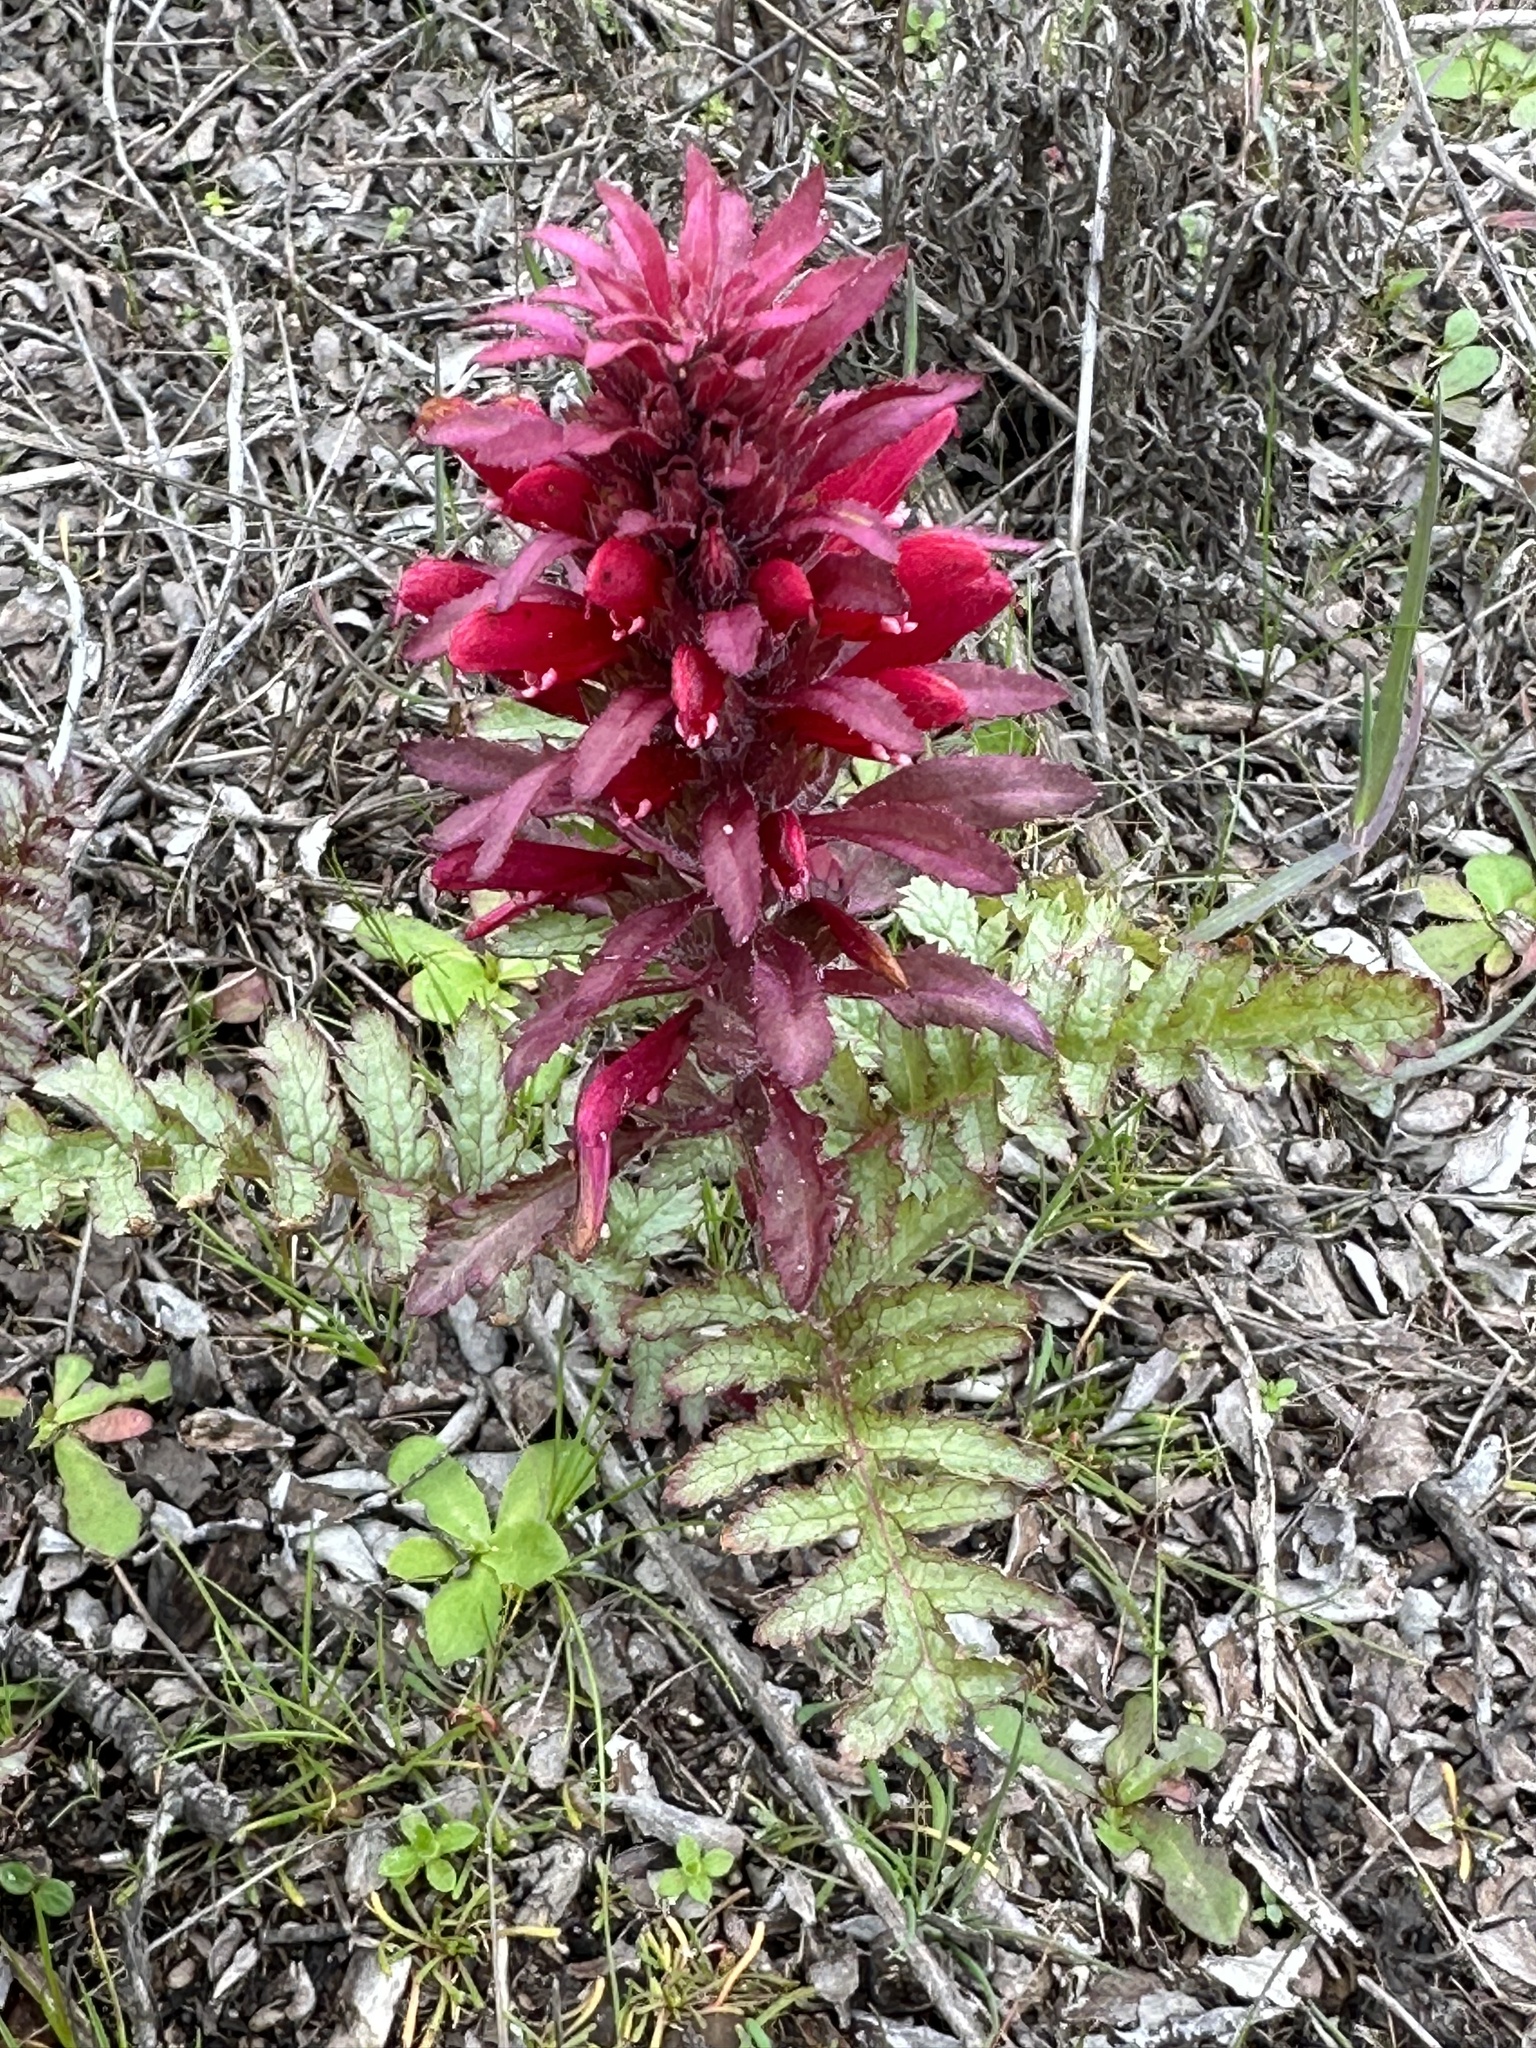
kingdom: Plantae
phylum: Tracheophyta
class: Magnoliopsida
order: Lamiales
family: Orobanchaceae
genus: Pedicularis
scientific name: Pedicularis densiflora
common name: Indian warrior
